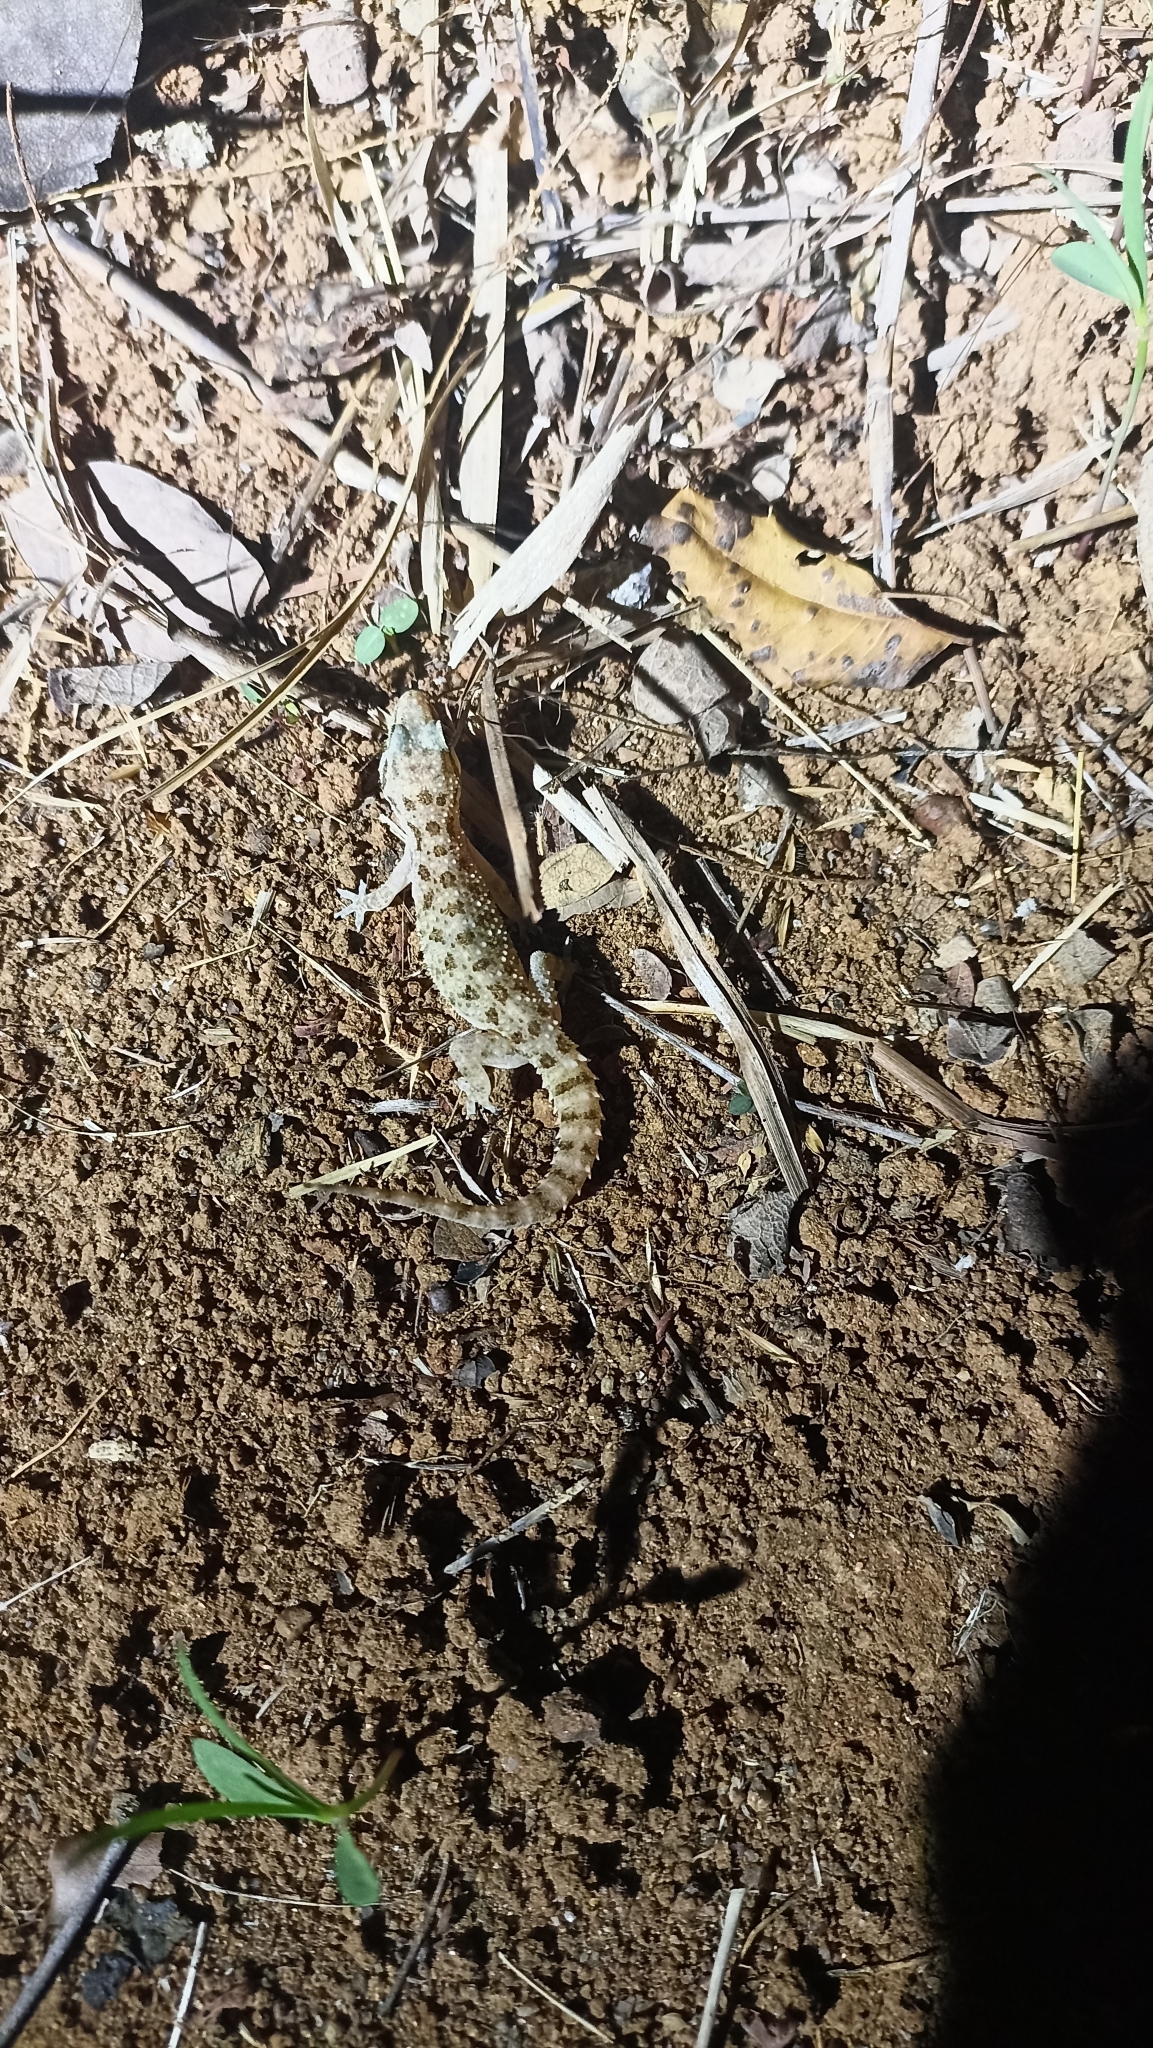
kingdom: Animalia
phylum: Chordata
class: Squamata
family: Gekkonidae
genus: Hemidactylus
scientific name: Hemidactylus parvimaculatus
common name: Spotted house gecko
